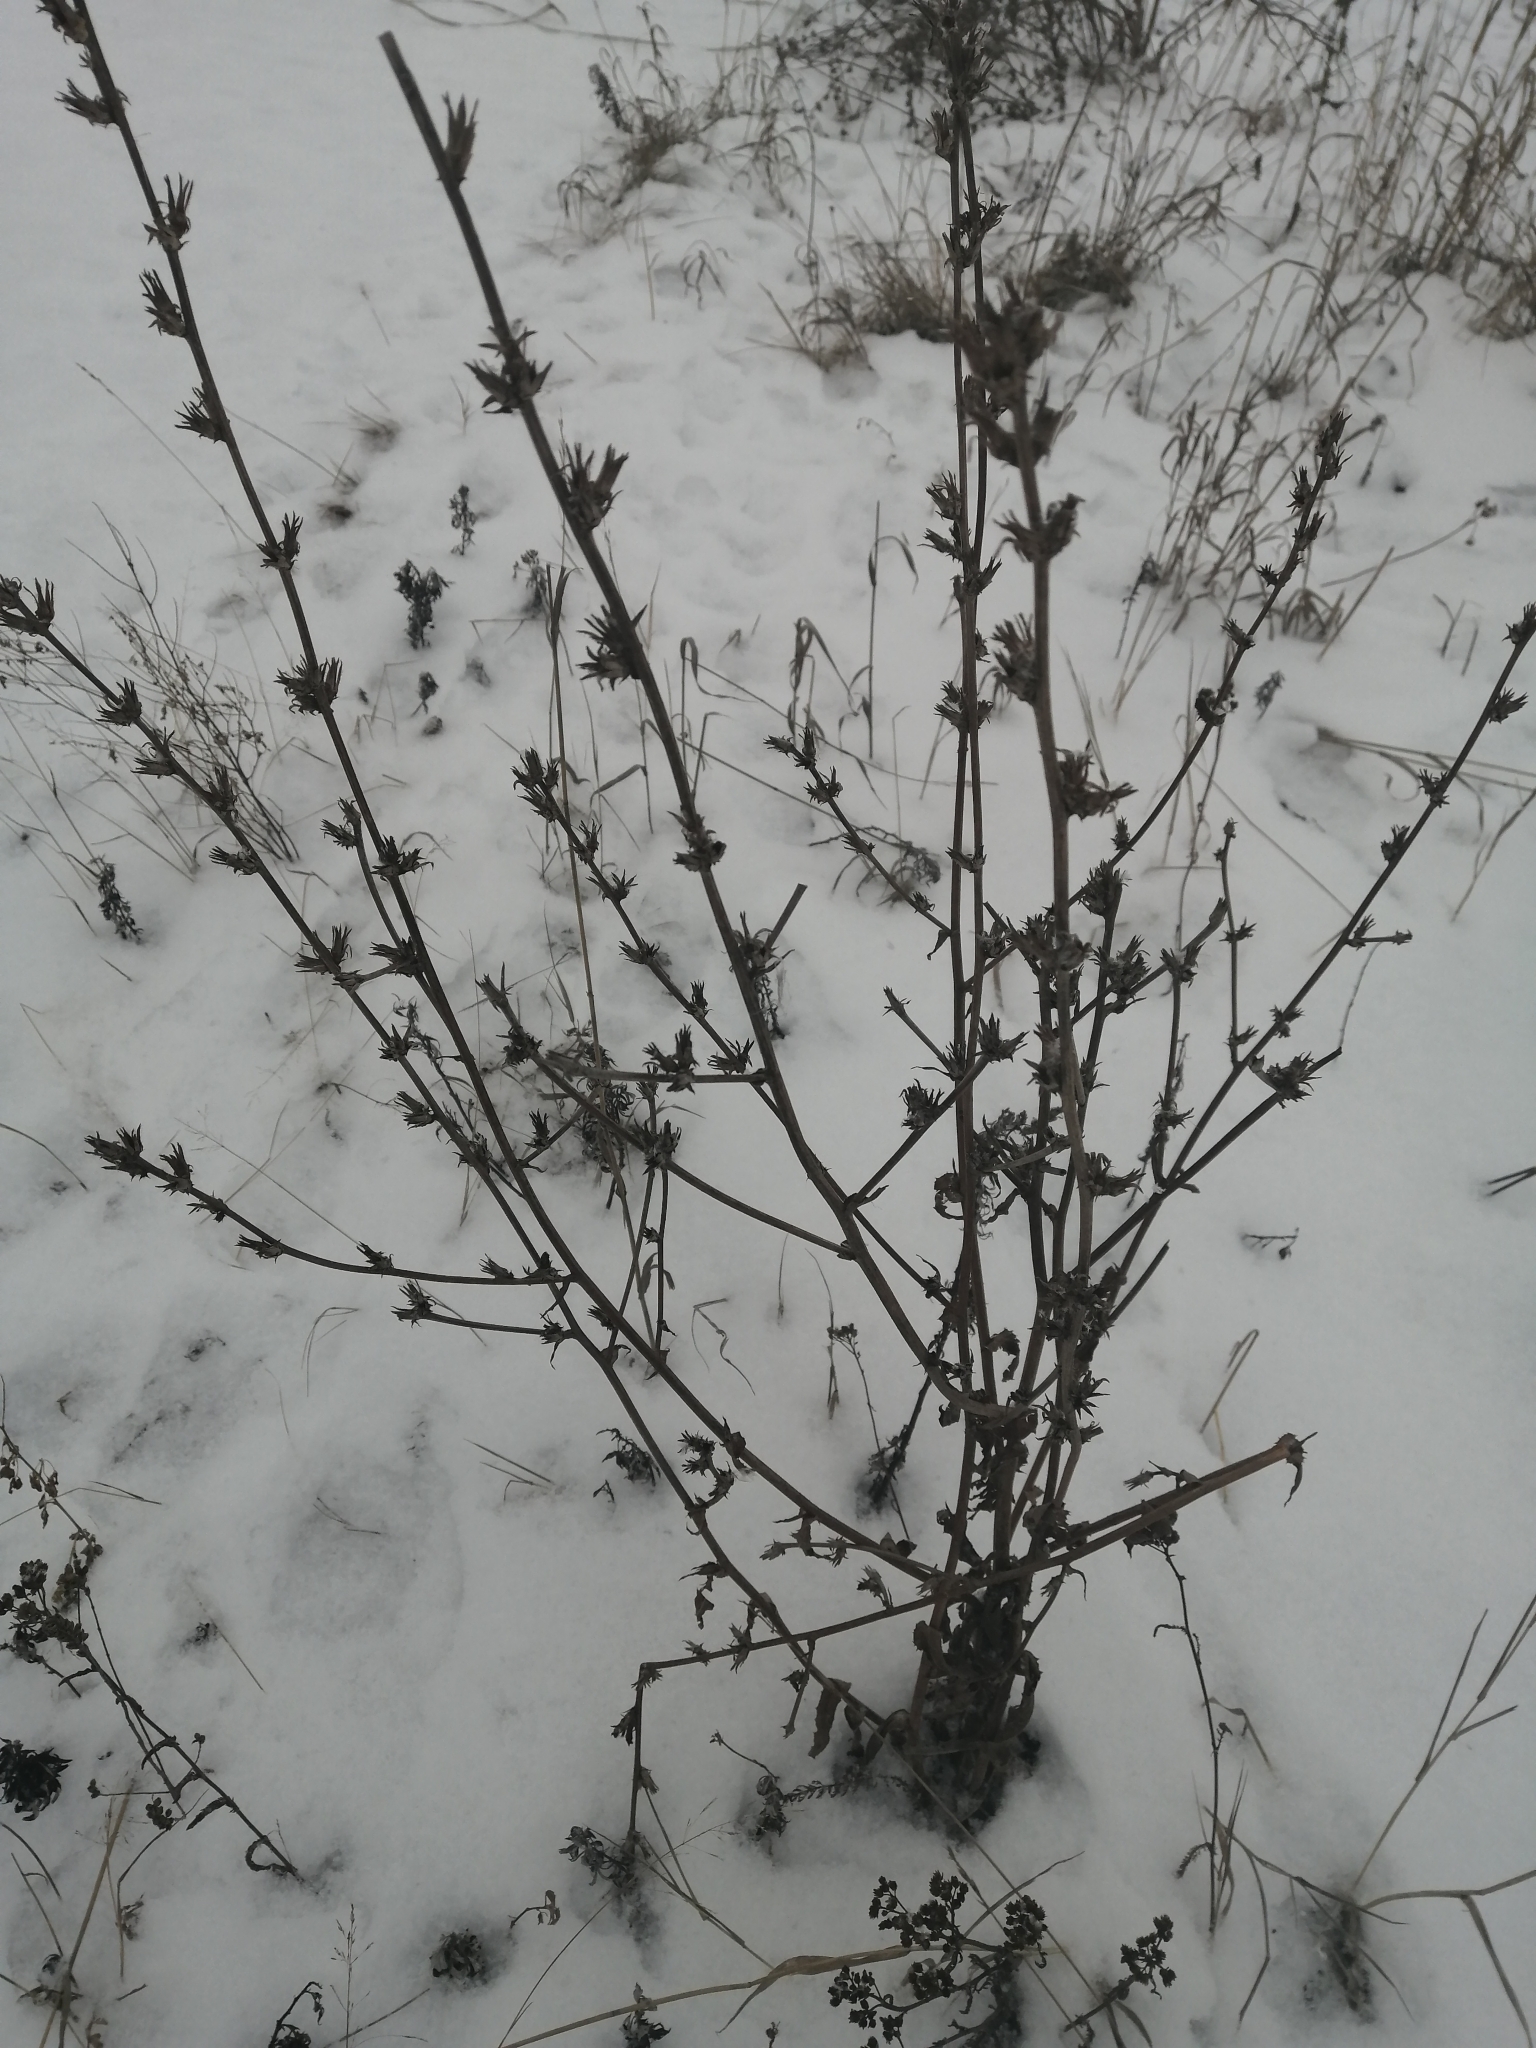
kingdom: Plantae
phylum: Tracheophyta
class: Magnoliopsida
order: Asterales
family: Asteraceae
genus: Cichorium
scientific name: Cichorium intybus
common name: Chicory
